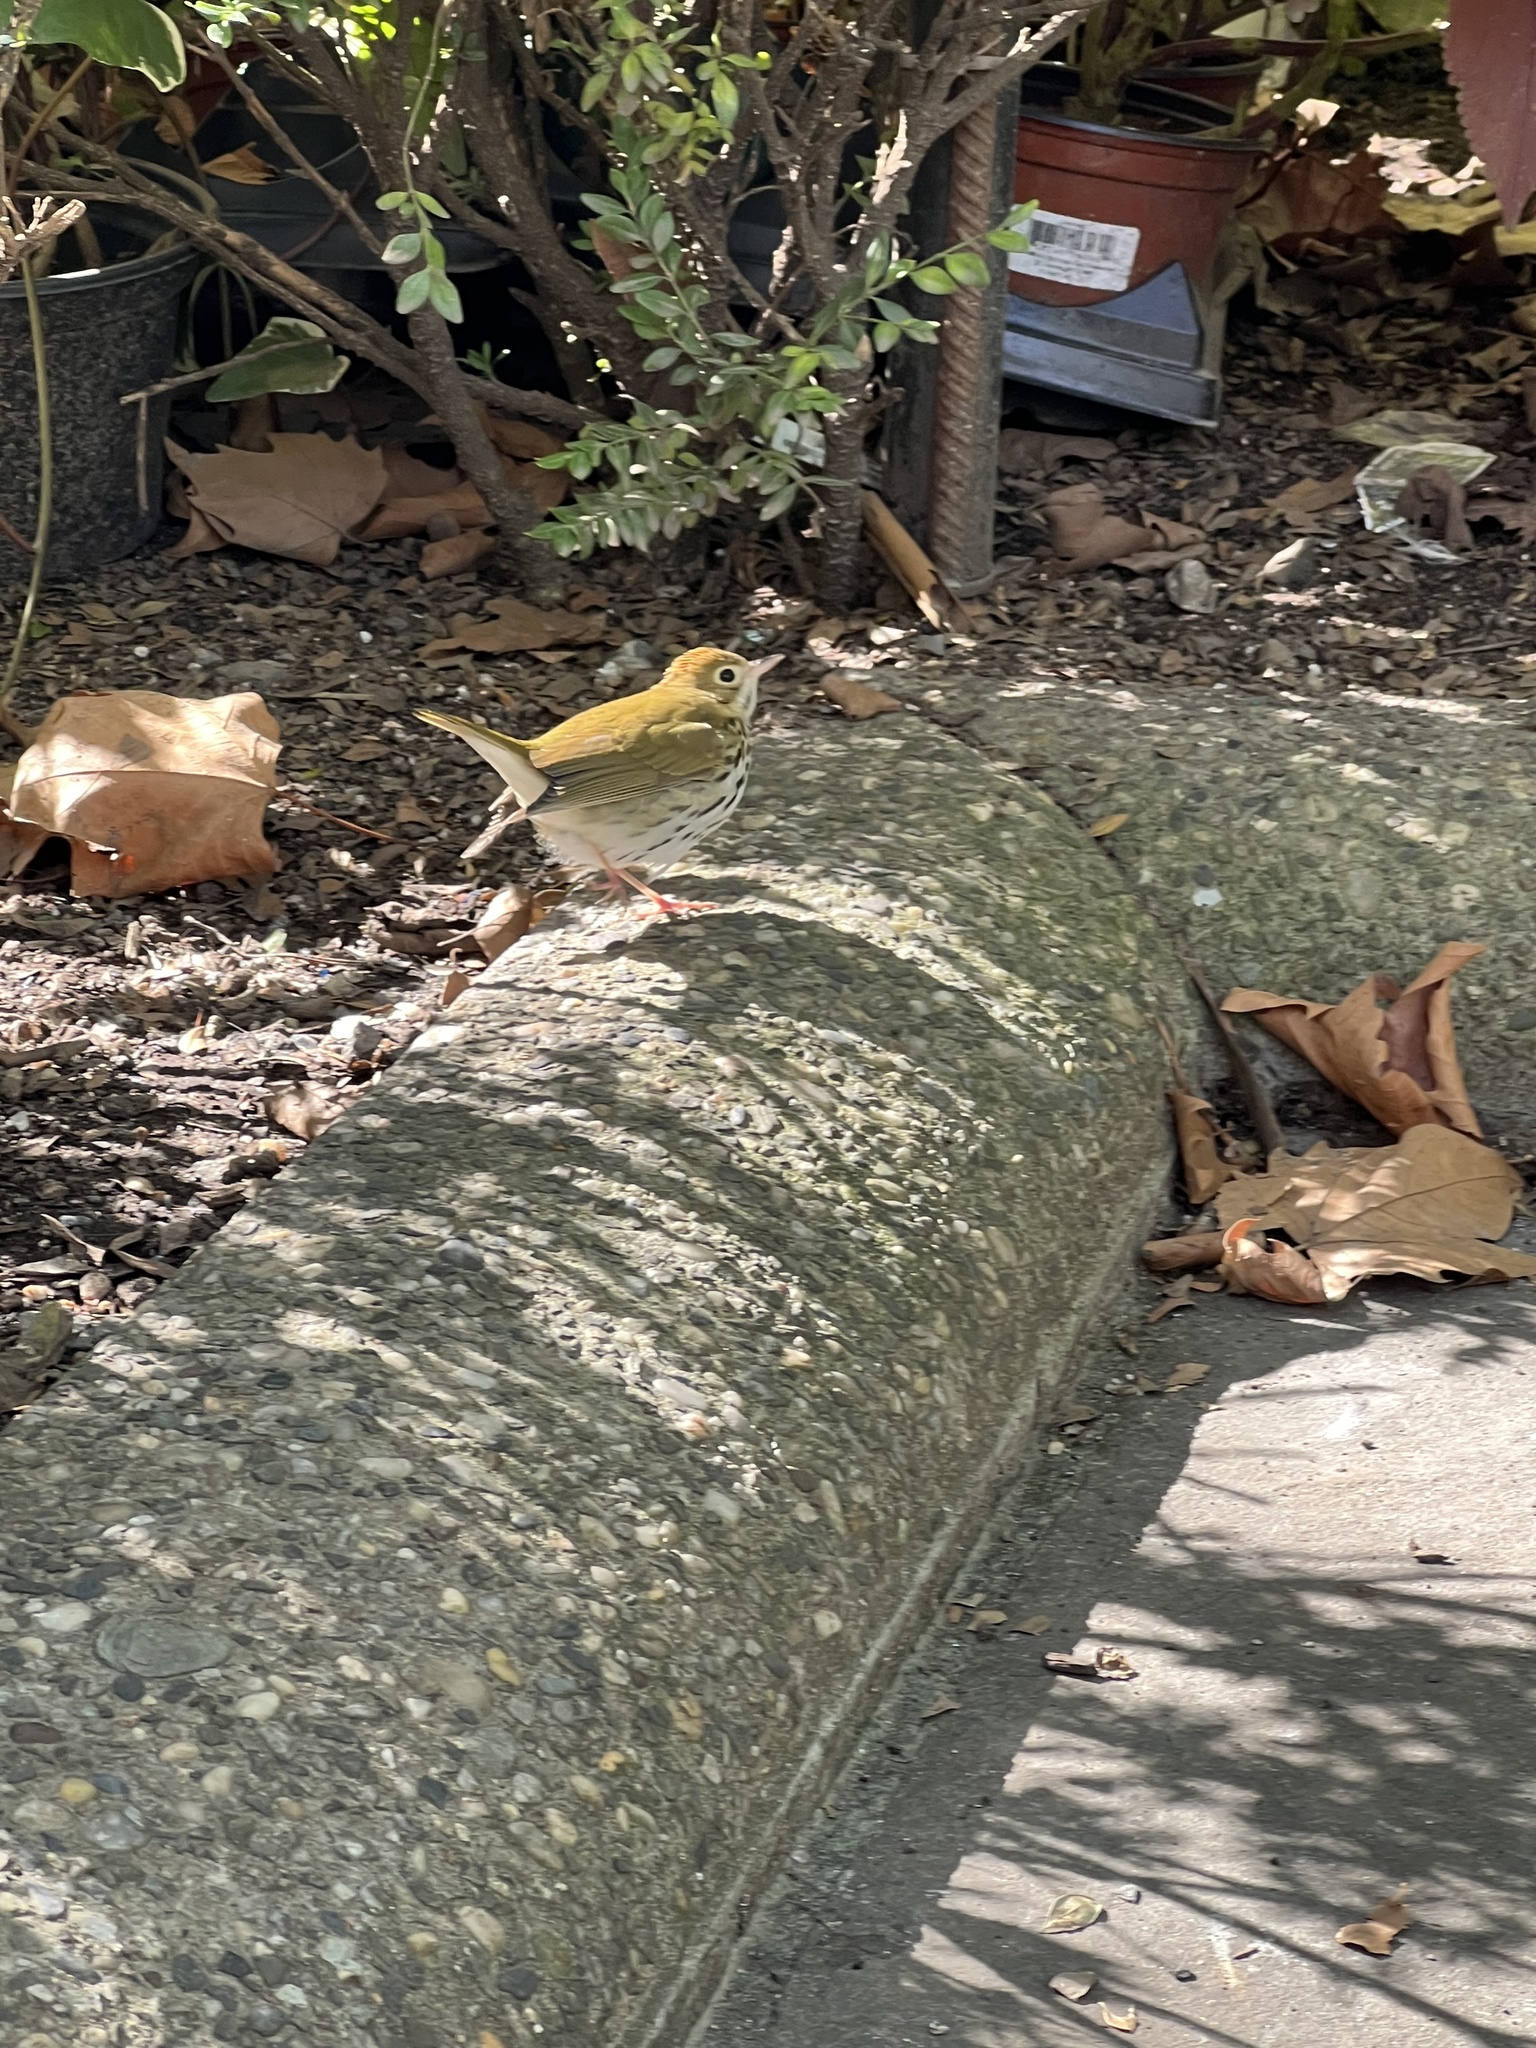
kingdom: Animalia
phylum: Chordata
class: Aves
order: Passeriformes
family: Parulidae
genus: Seiurus
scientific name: Seiurus aurocapilla
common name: Ovenbird
